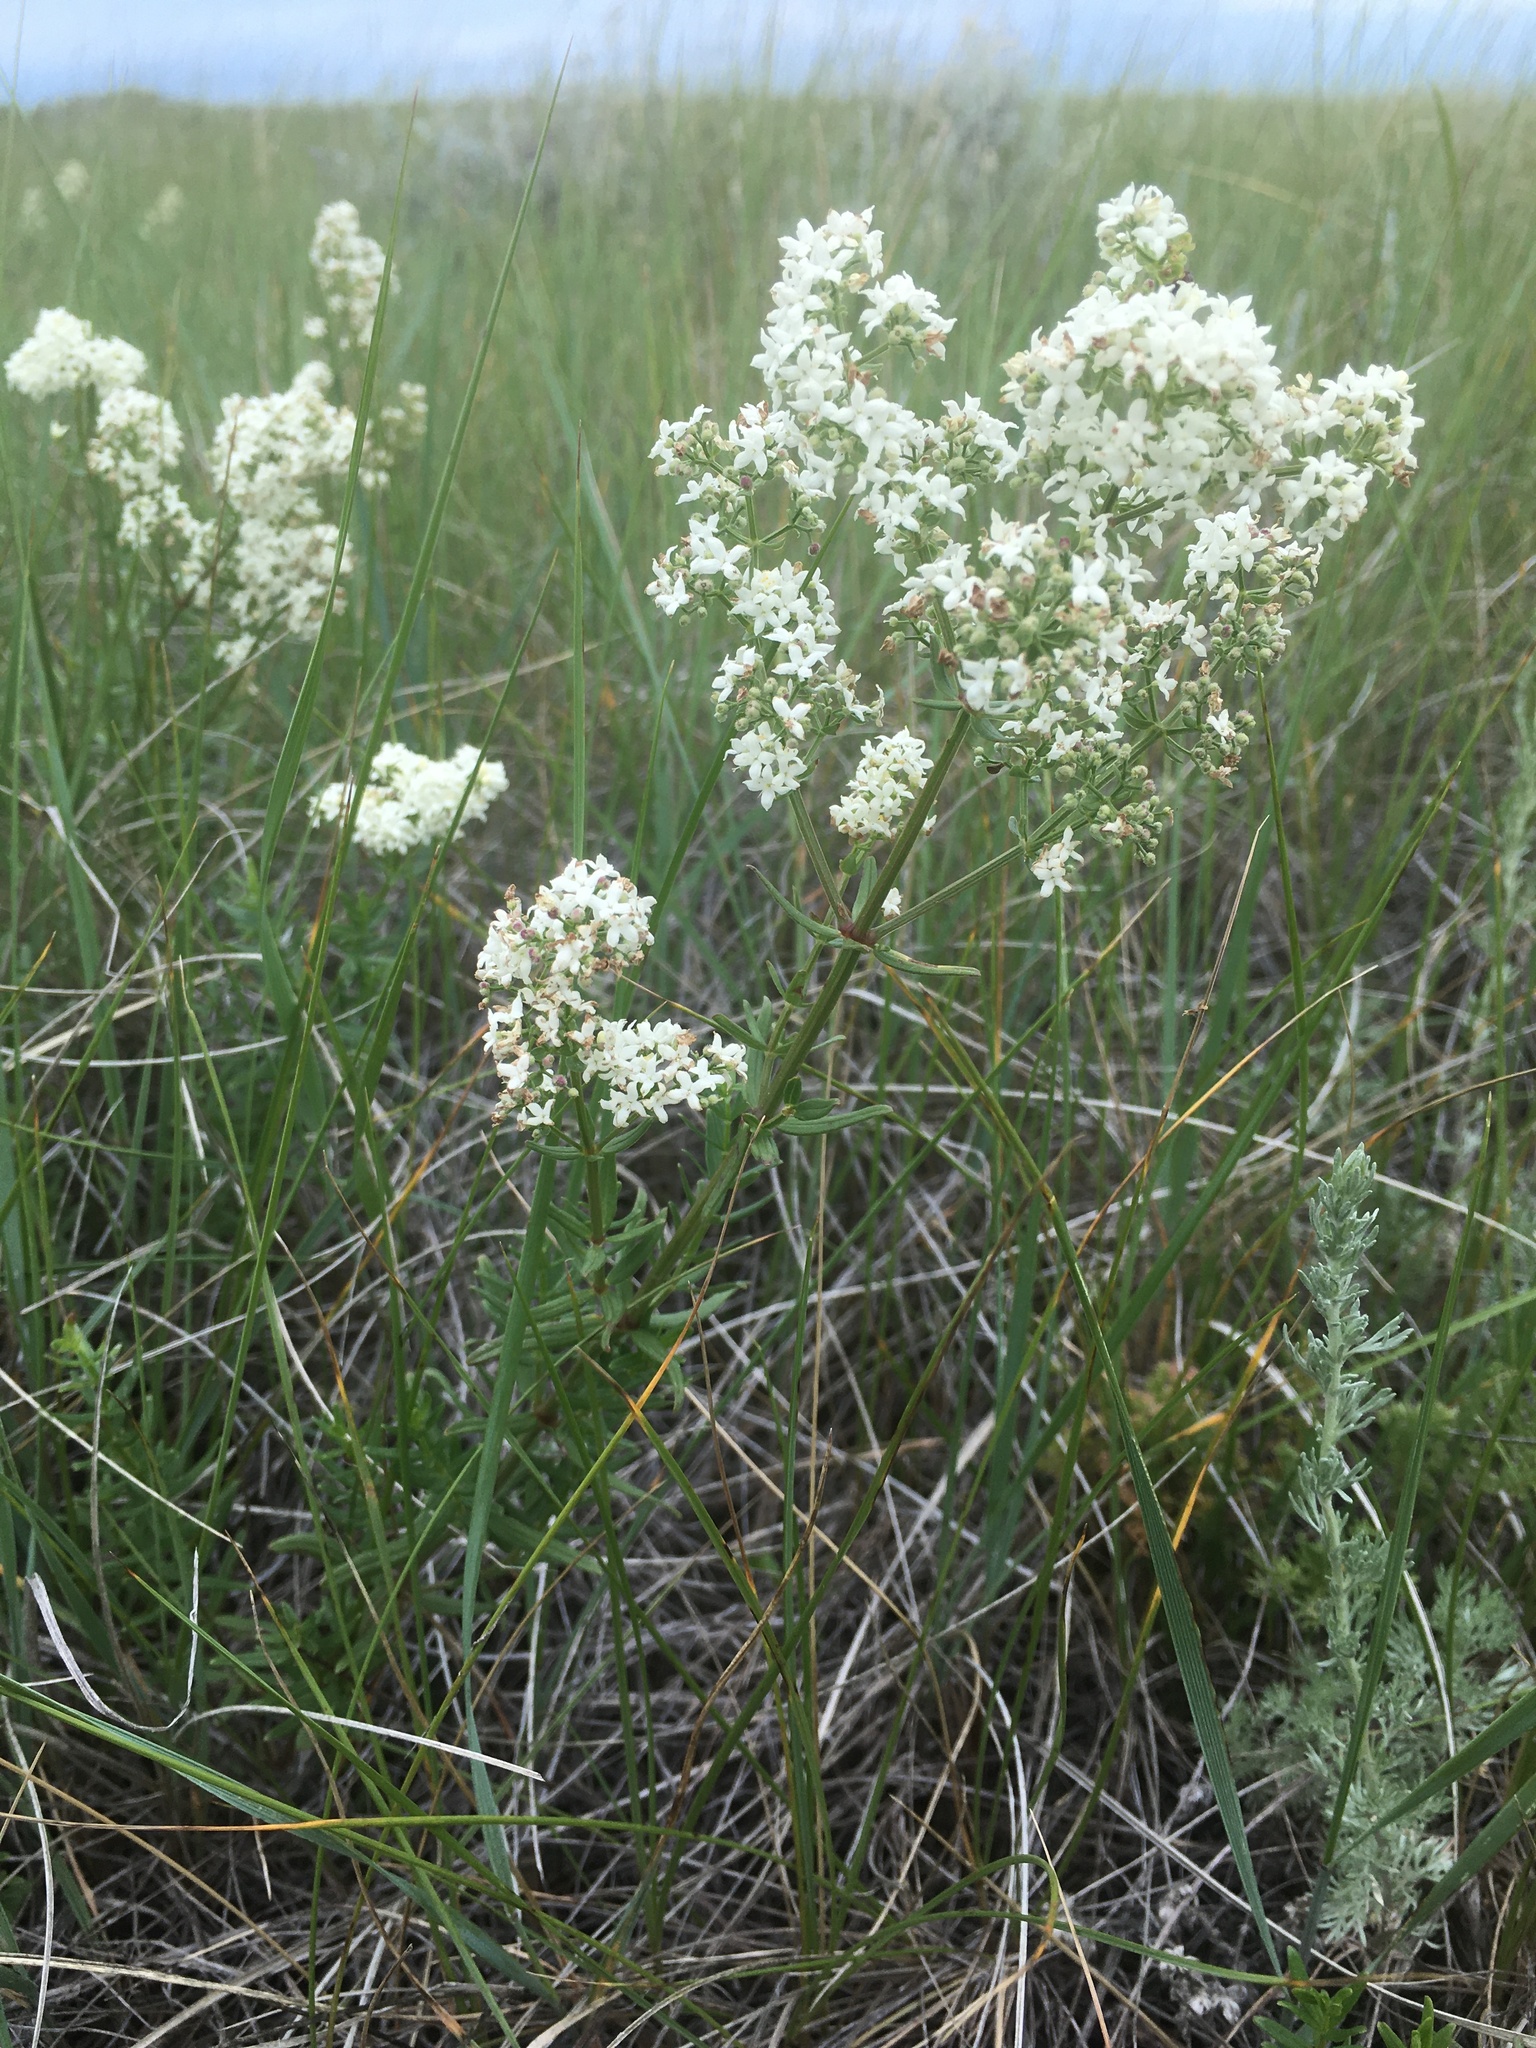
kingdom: Plantae
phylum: Tracheophyta
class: Magnoliopsida
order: Gentianales
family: Rubiaceae
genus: Galium
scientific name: Galium boreale
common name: Northern bedstraw
